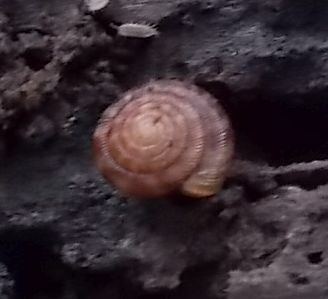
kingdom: Animalia
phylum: Mollusca
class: Gastropoda
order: Stylommatophora
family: Discidae
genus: Discus
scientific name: Discus rotundatus
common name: Rounded snail
